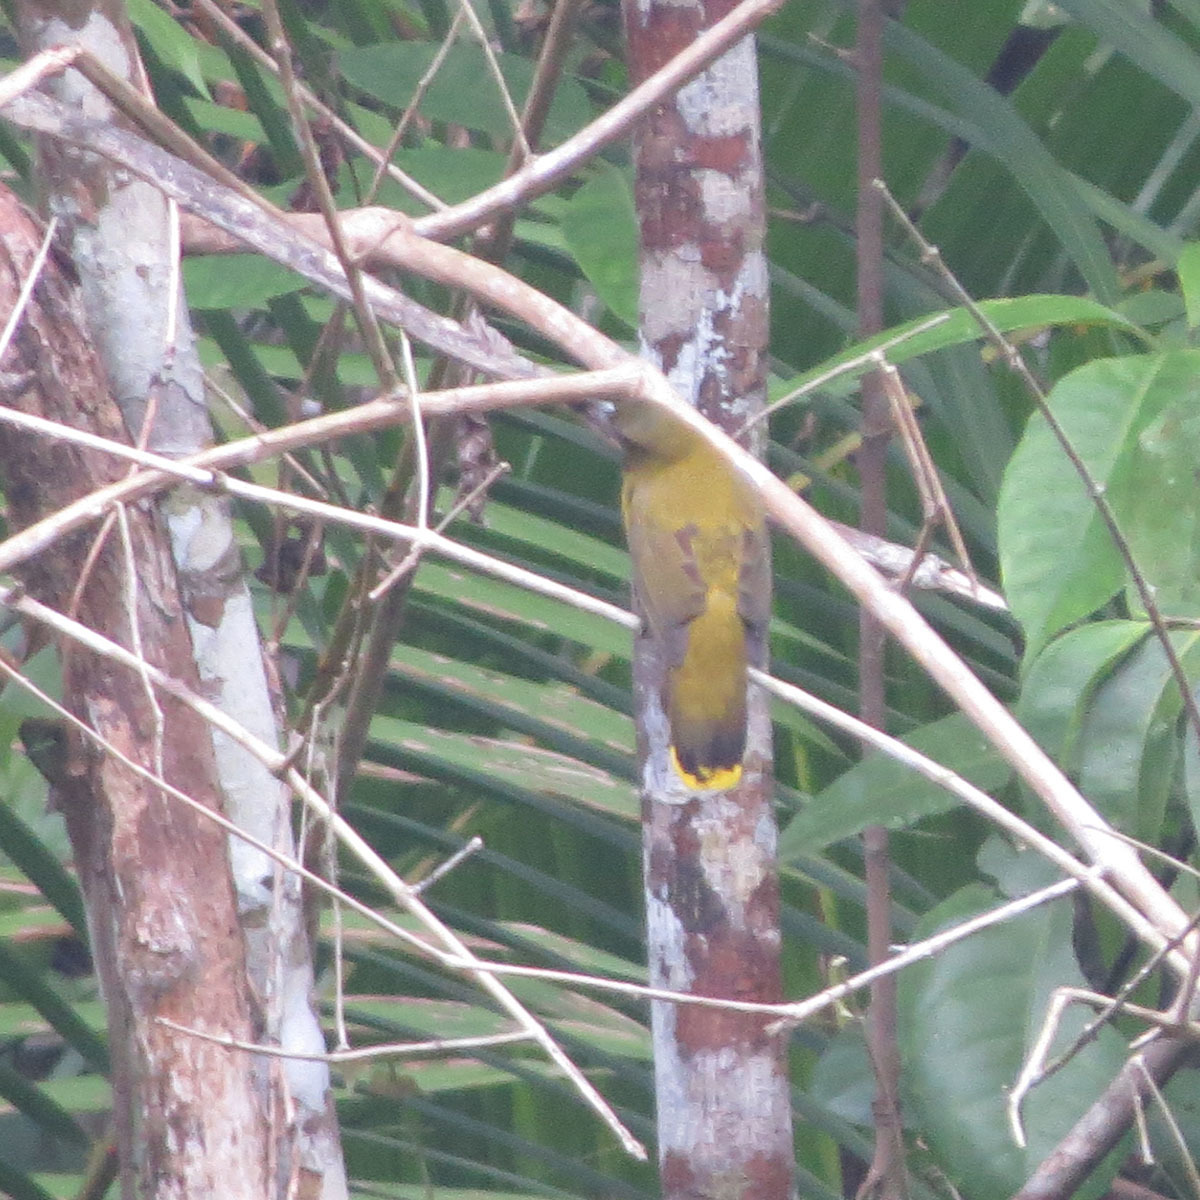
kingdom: Animalia
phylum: Chordata
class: Aves
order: Passeriformes
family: Pycnonotidae
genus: Microtarsus
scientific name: Microtarsus
